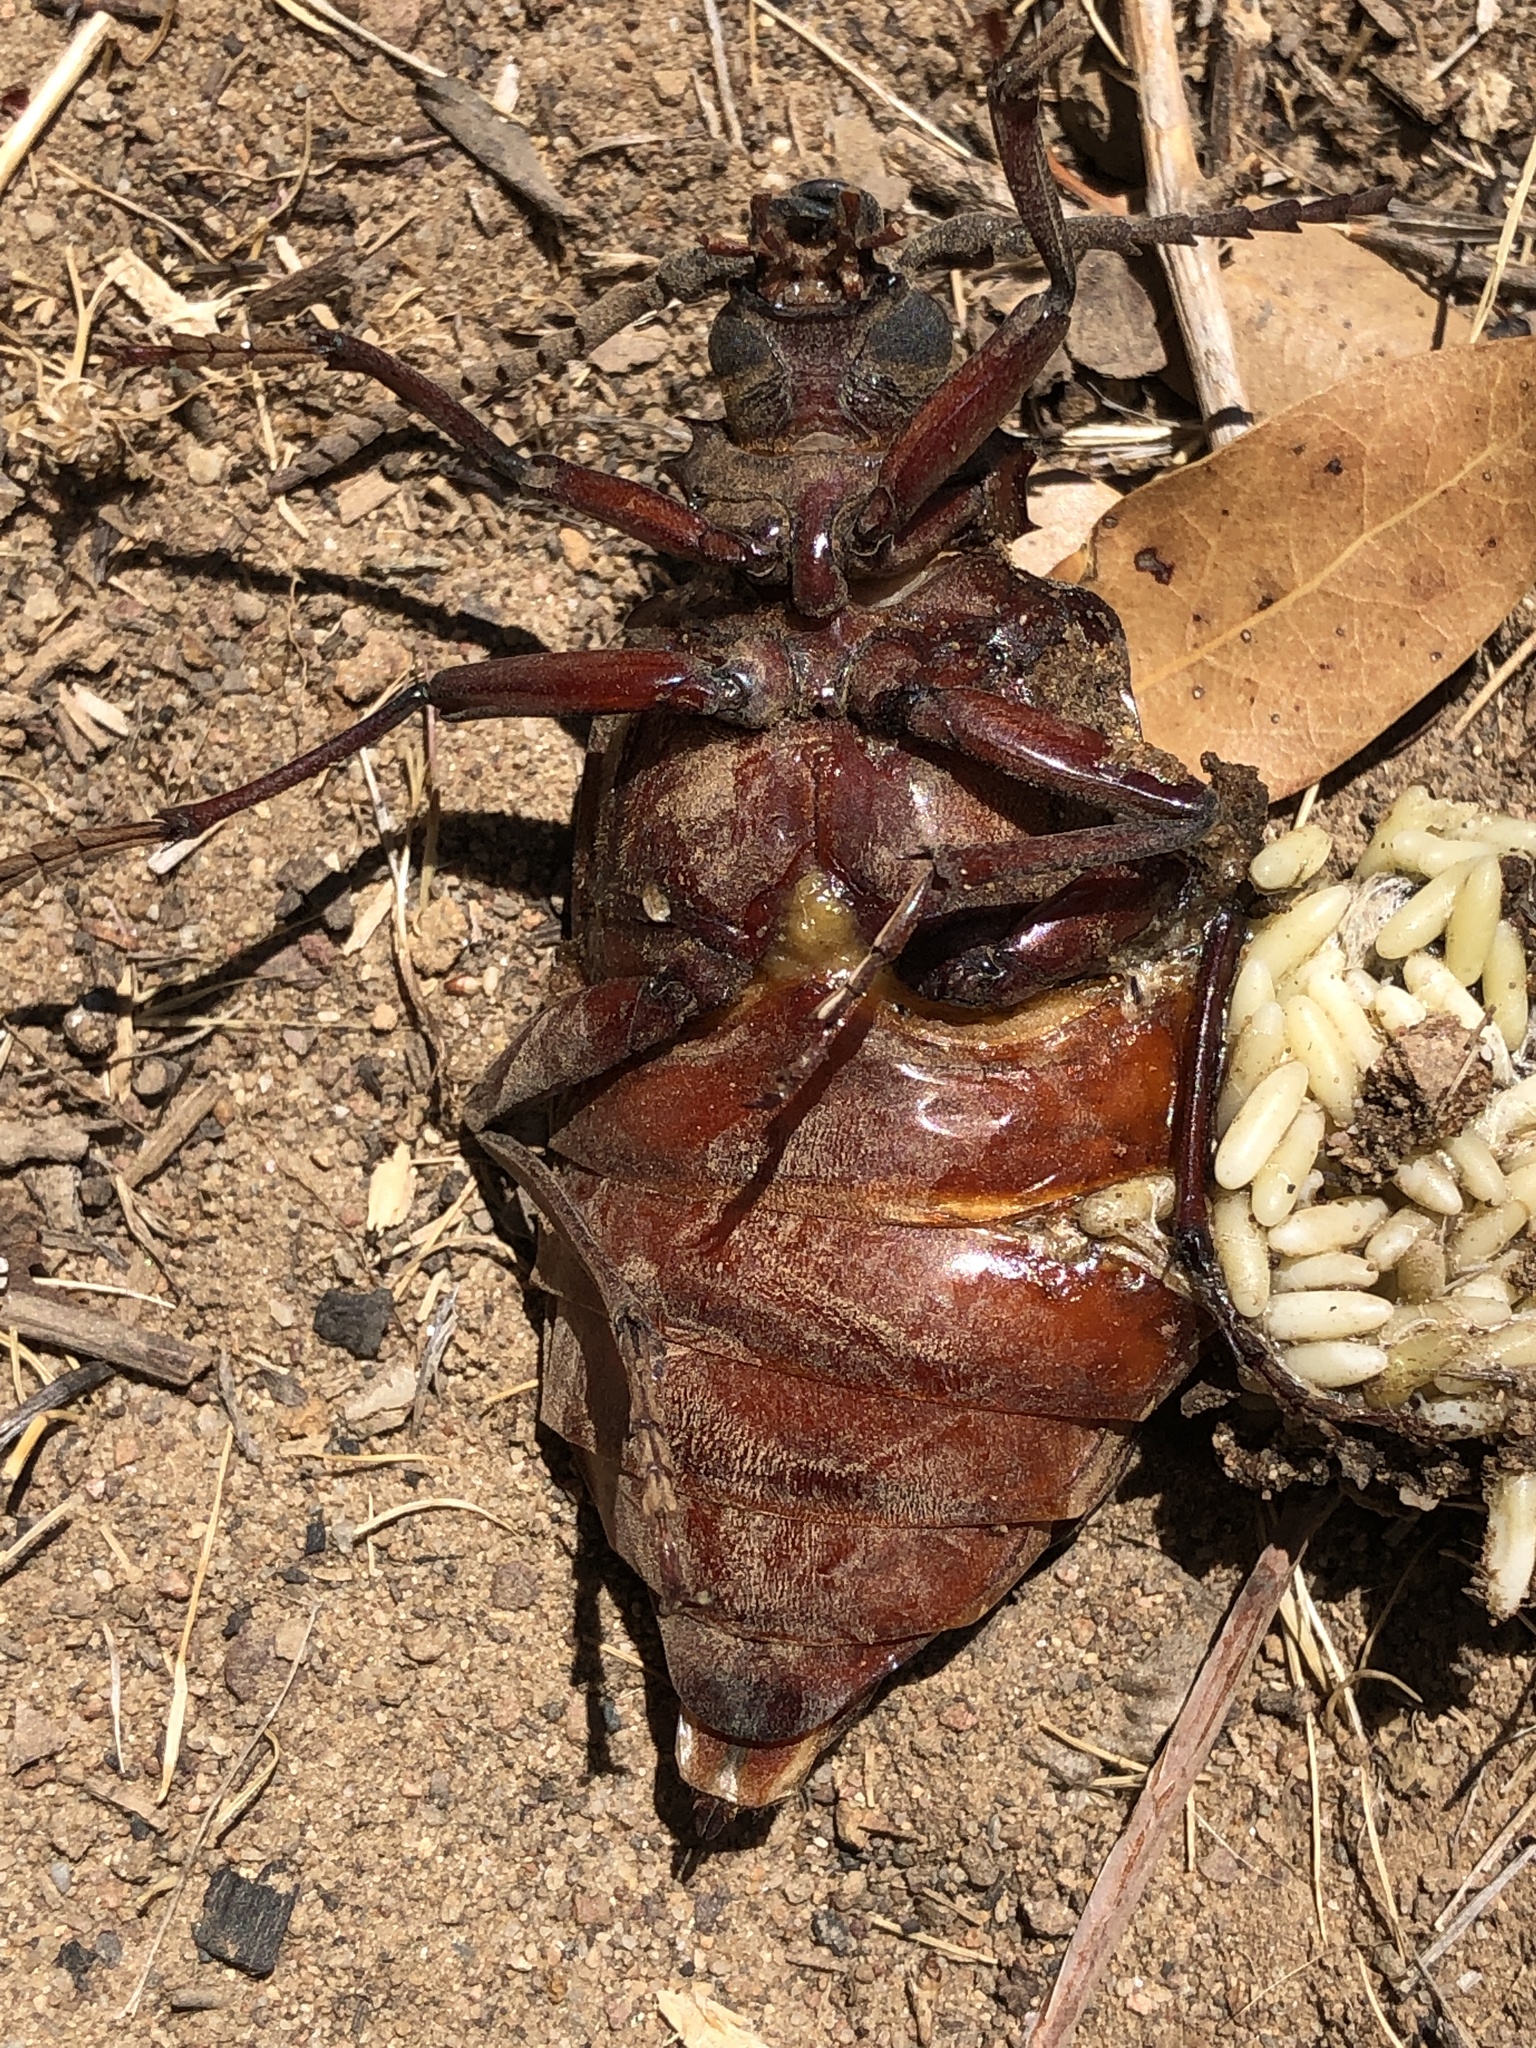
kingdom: Animalia
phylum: Arthropoda
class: Insecta
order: Coleoptera
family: Cerambycidae
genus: Prionus
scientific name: Prionus californicus
